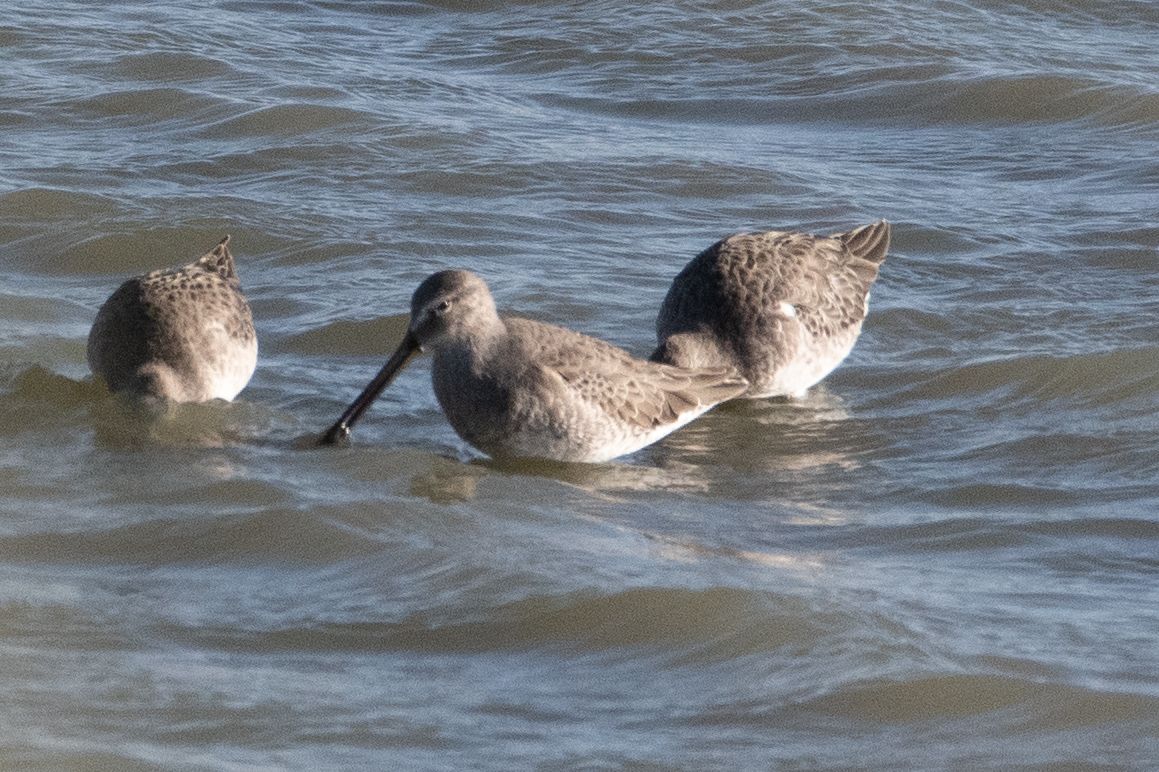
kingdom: Animalia
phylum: Chordata
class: Aves
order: Charadriiformes
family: Scolopacidae
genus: Limnodromus
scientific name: Limnodromus scolopaceus
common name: Long-billed dowitcher
